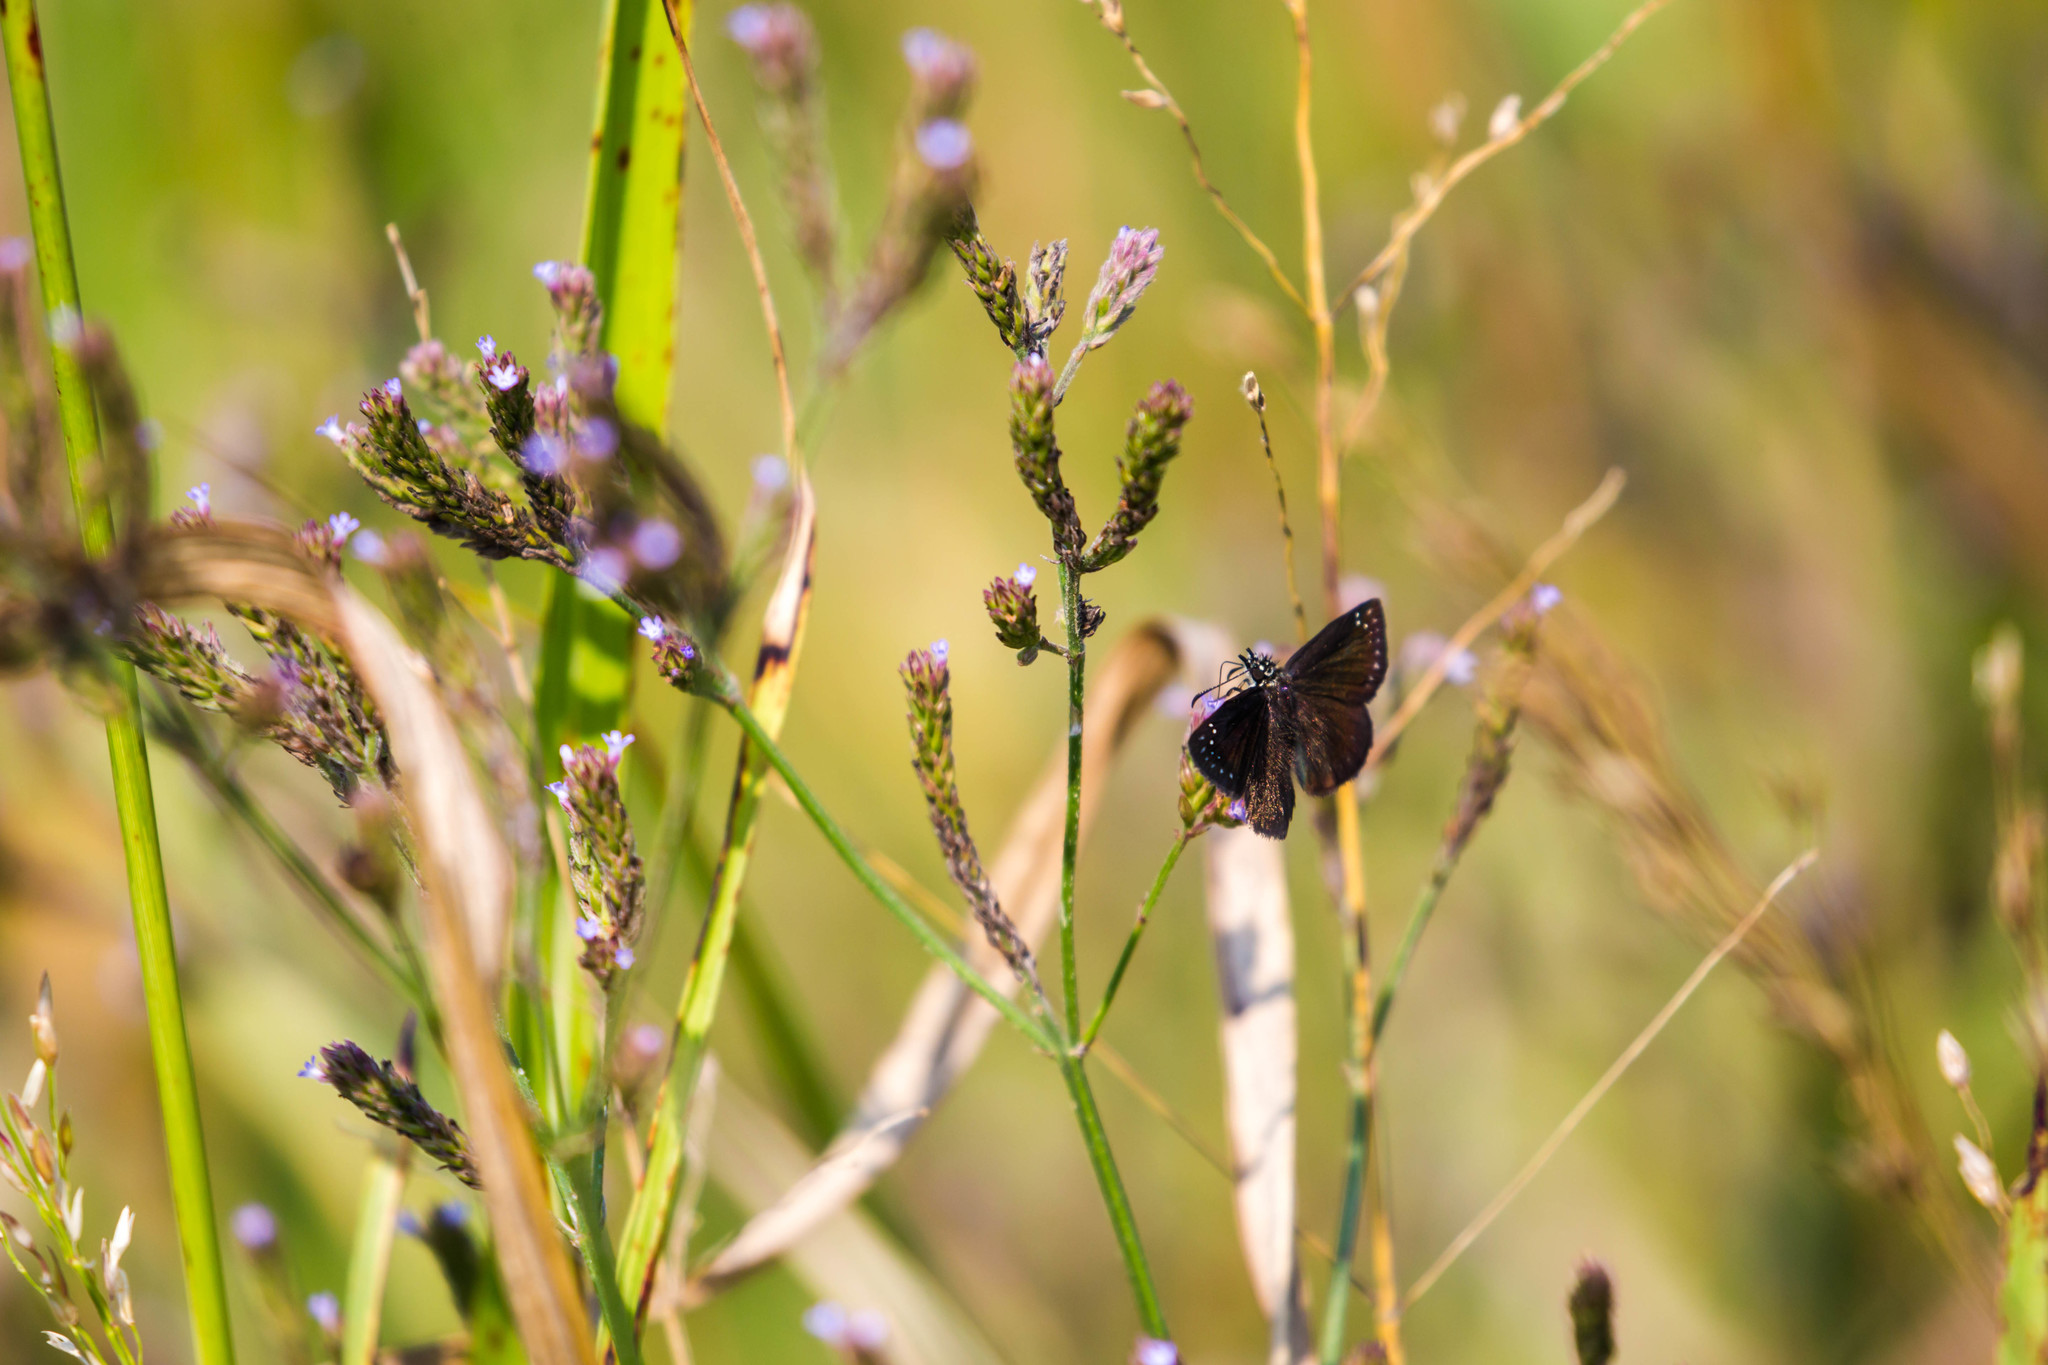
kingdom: Animalia
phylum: Arthropoda
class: Insecta
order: Lepidoptera
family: Hesperiidae
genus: Pholisora
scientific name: Pholisora catullus
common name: Common sootywing
